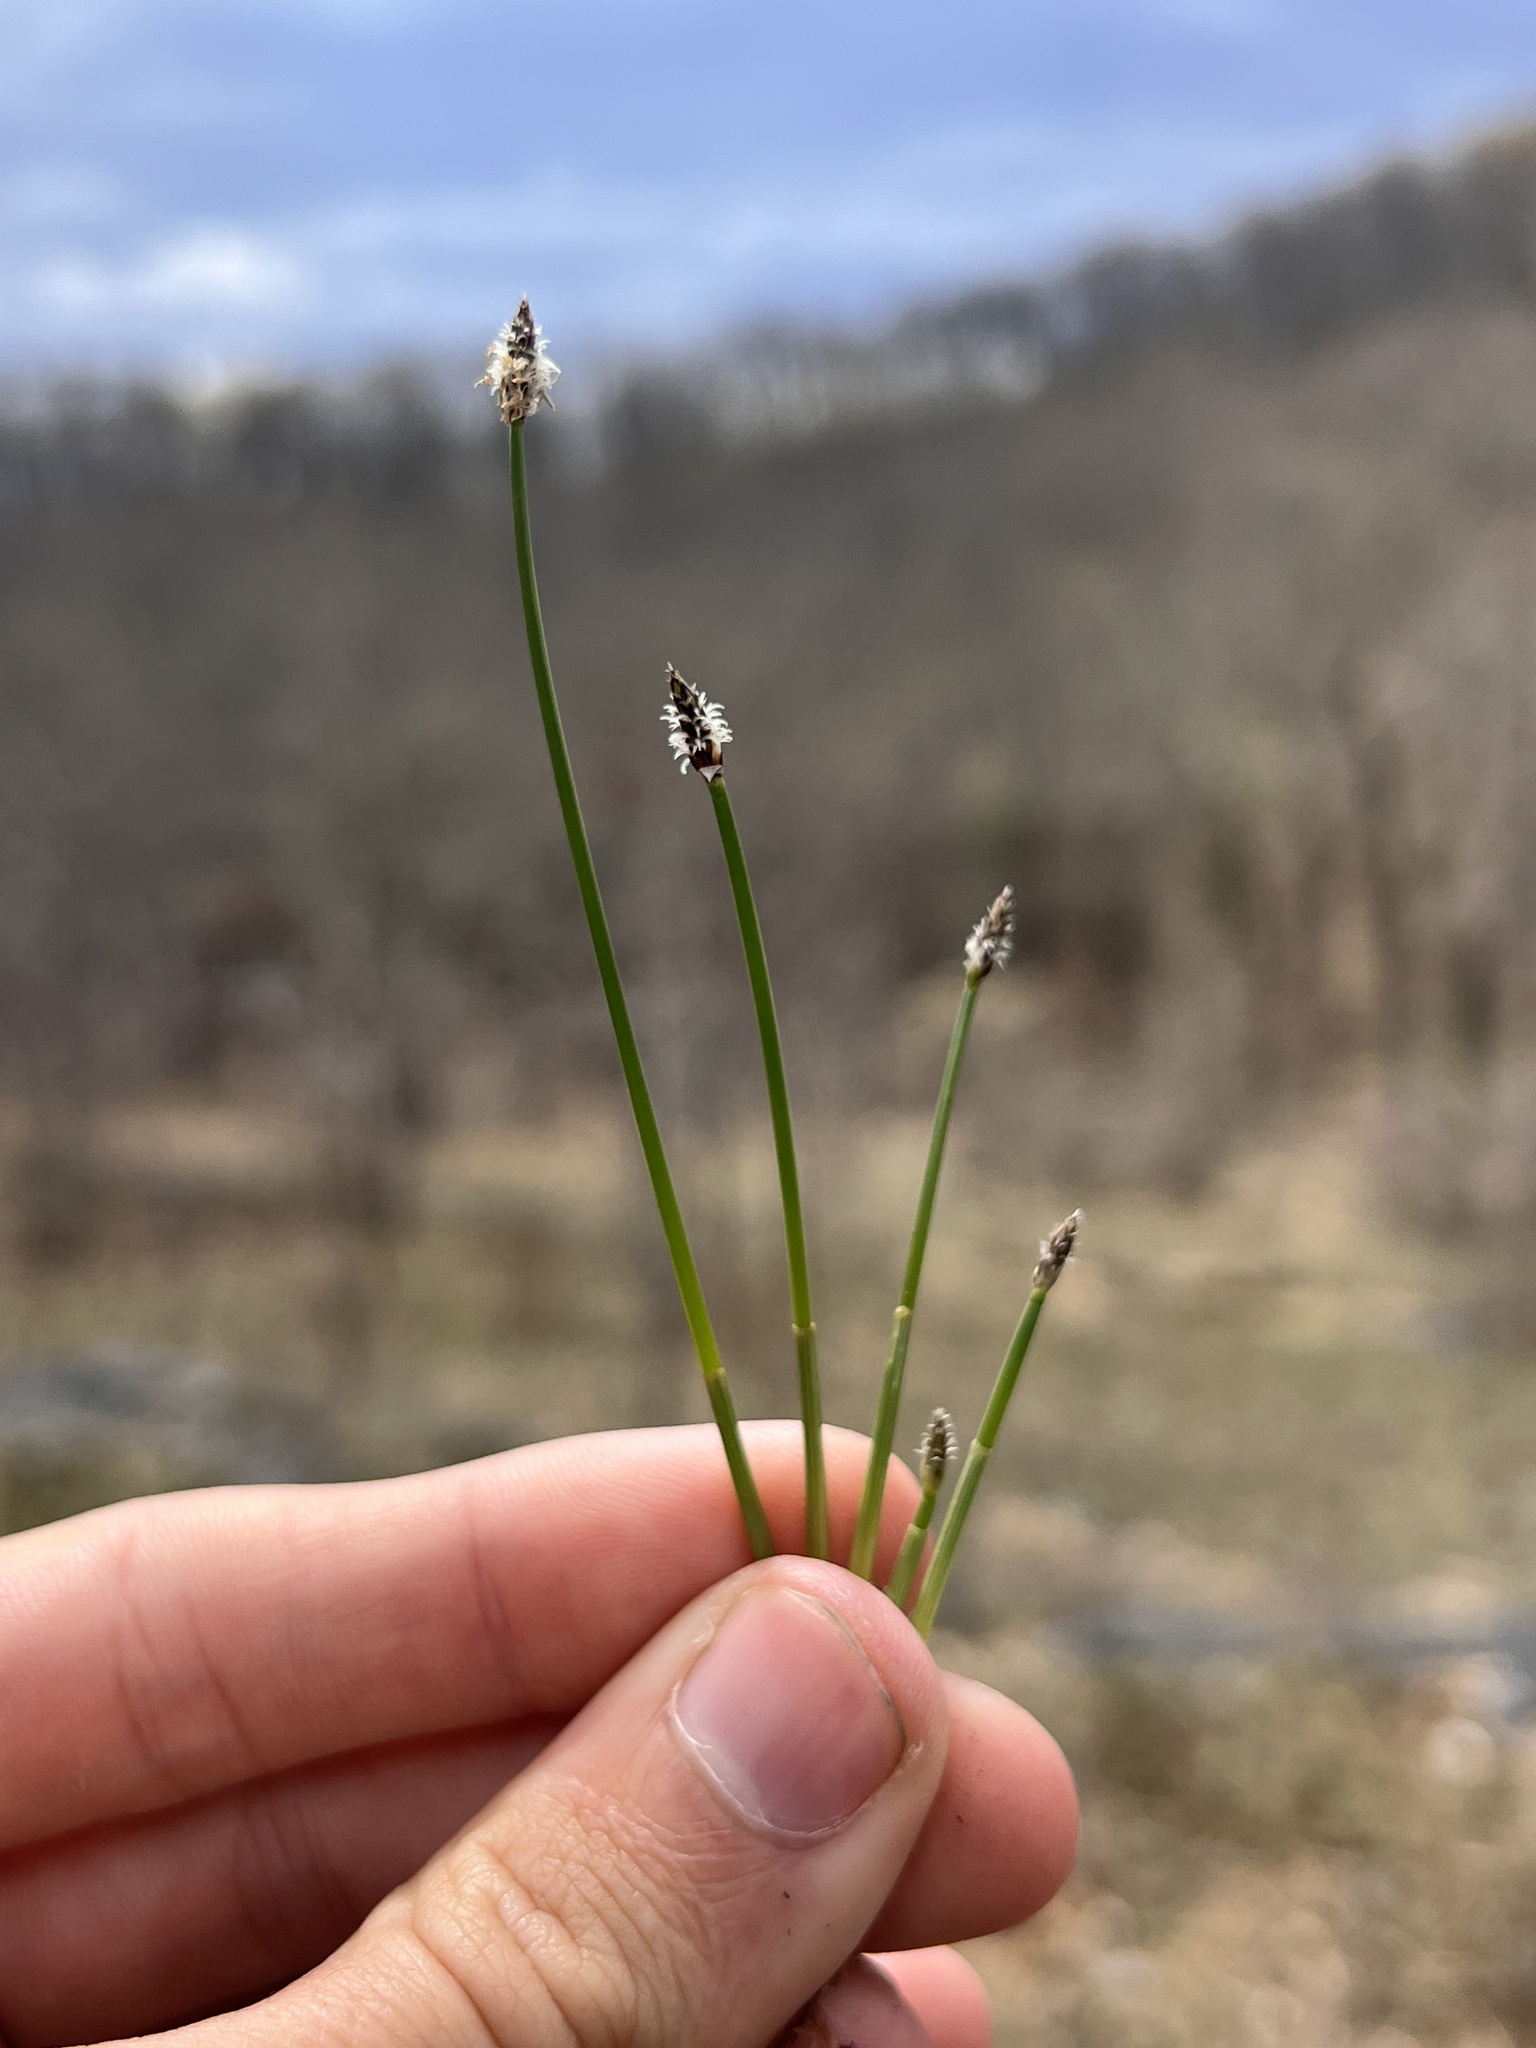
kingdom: Plantae
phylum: Tracheophyta
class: Liliopsida
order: Poales
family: Cyperaceae
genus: Eleocharis
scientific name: Eleocharis compressa
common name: Flat-stem spike-rush
